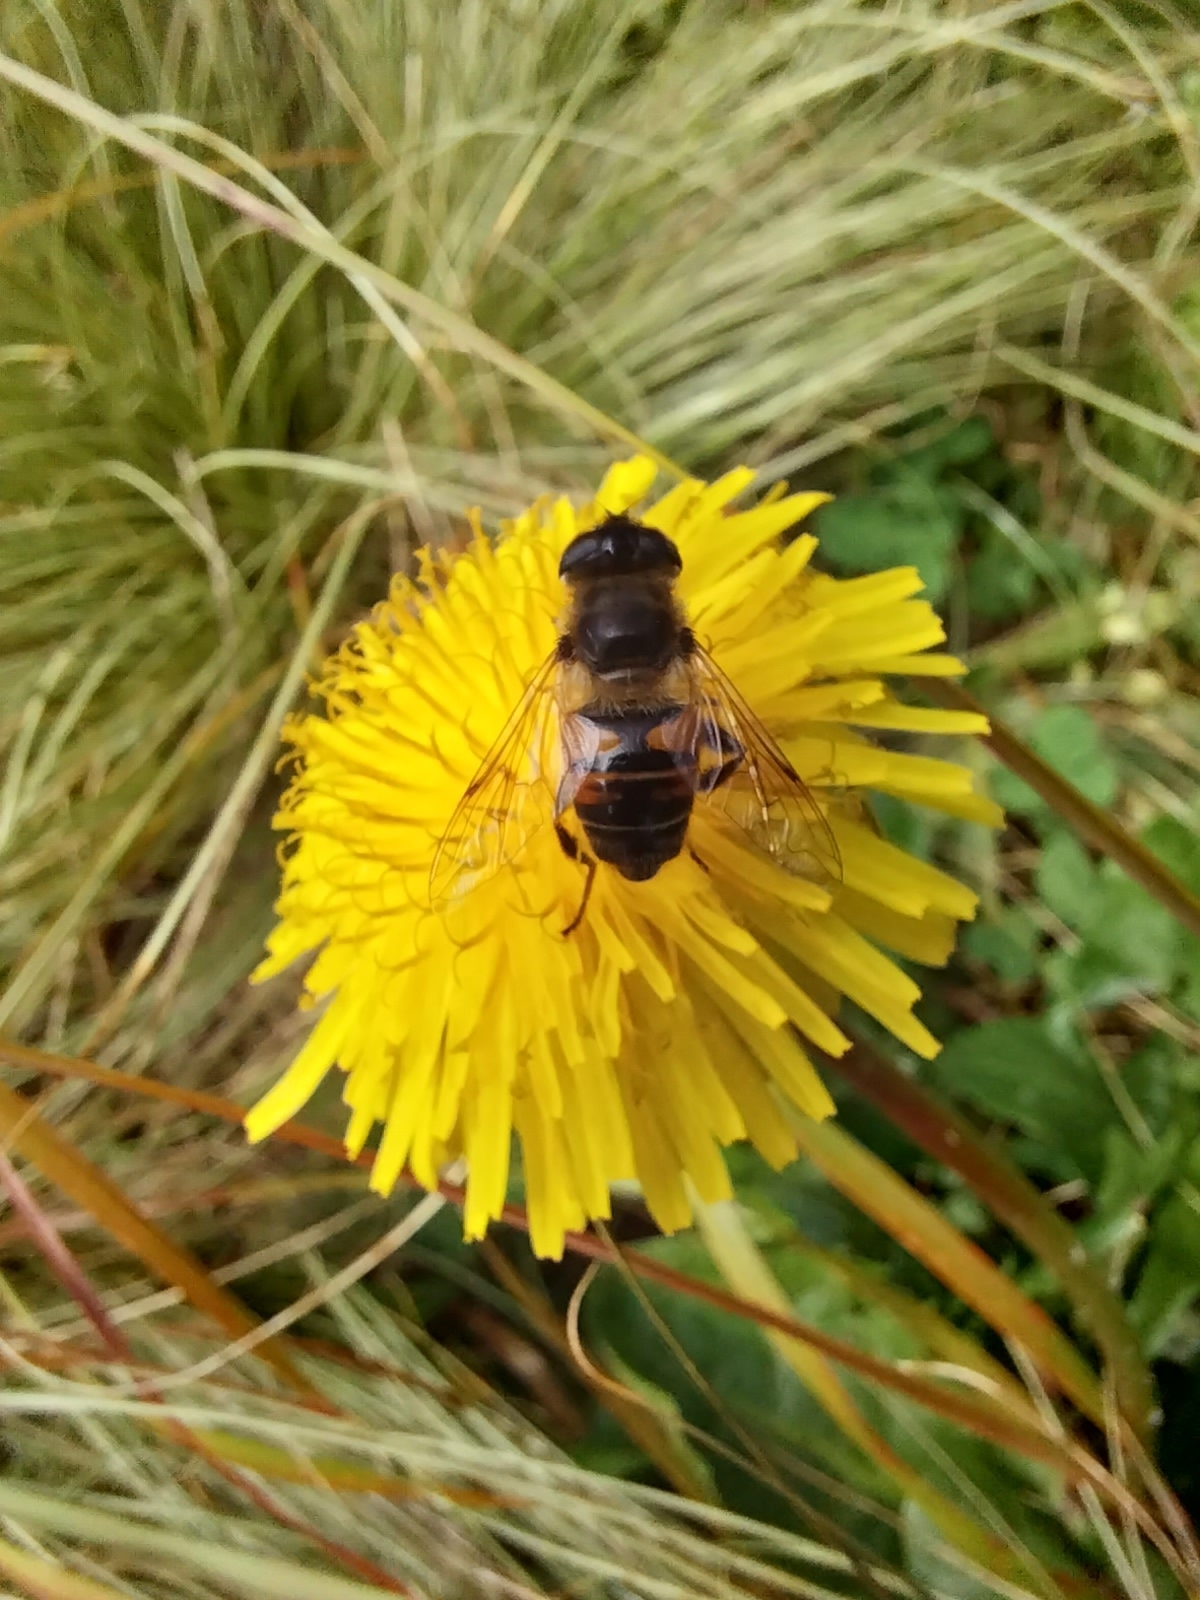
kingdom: Animalia
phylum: Arthropoda
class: Insecta
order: Diptera
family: Syrphidae
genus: Eristalis
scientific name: Eristalis tenax
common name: Drone fly
